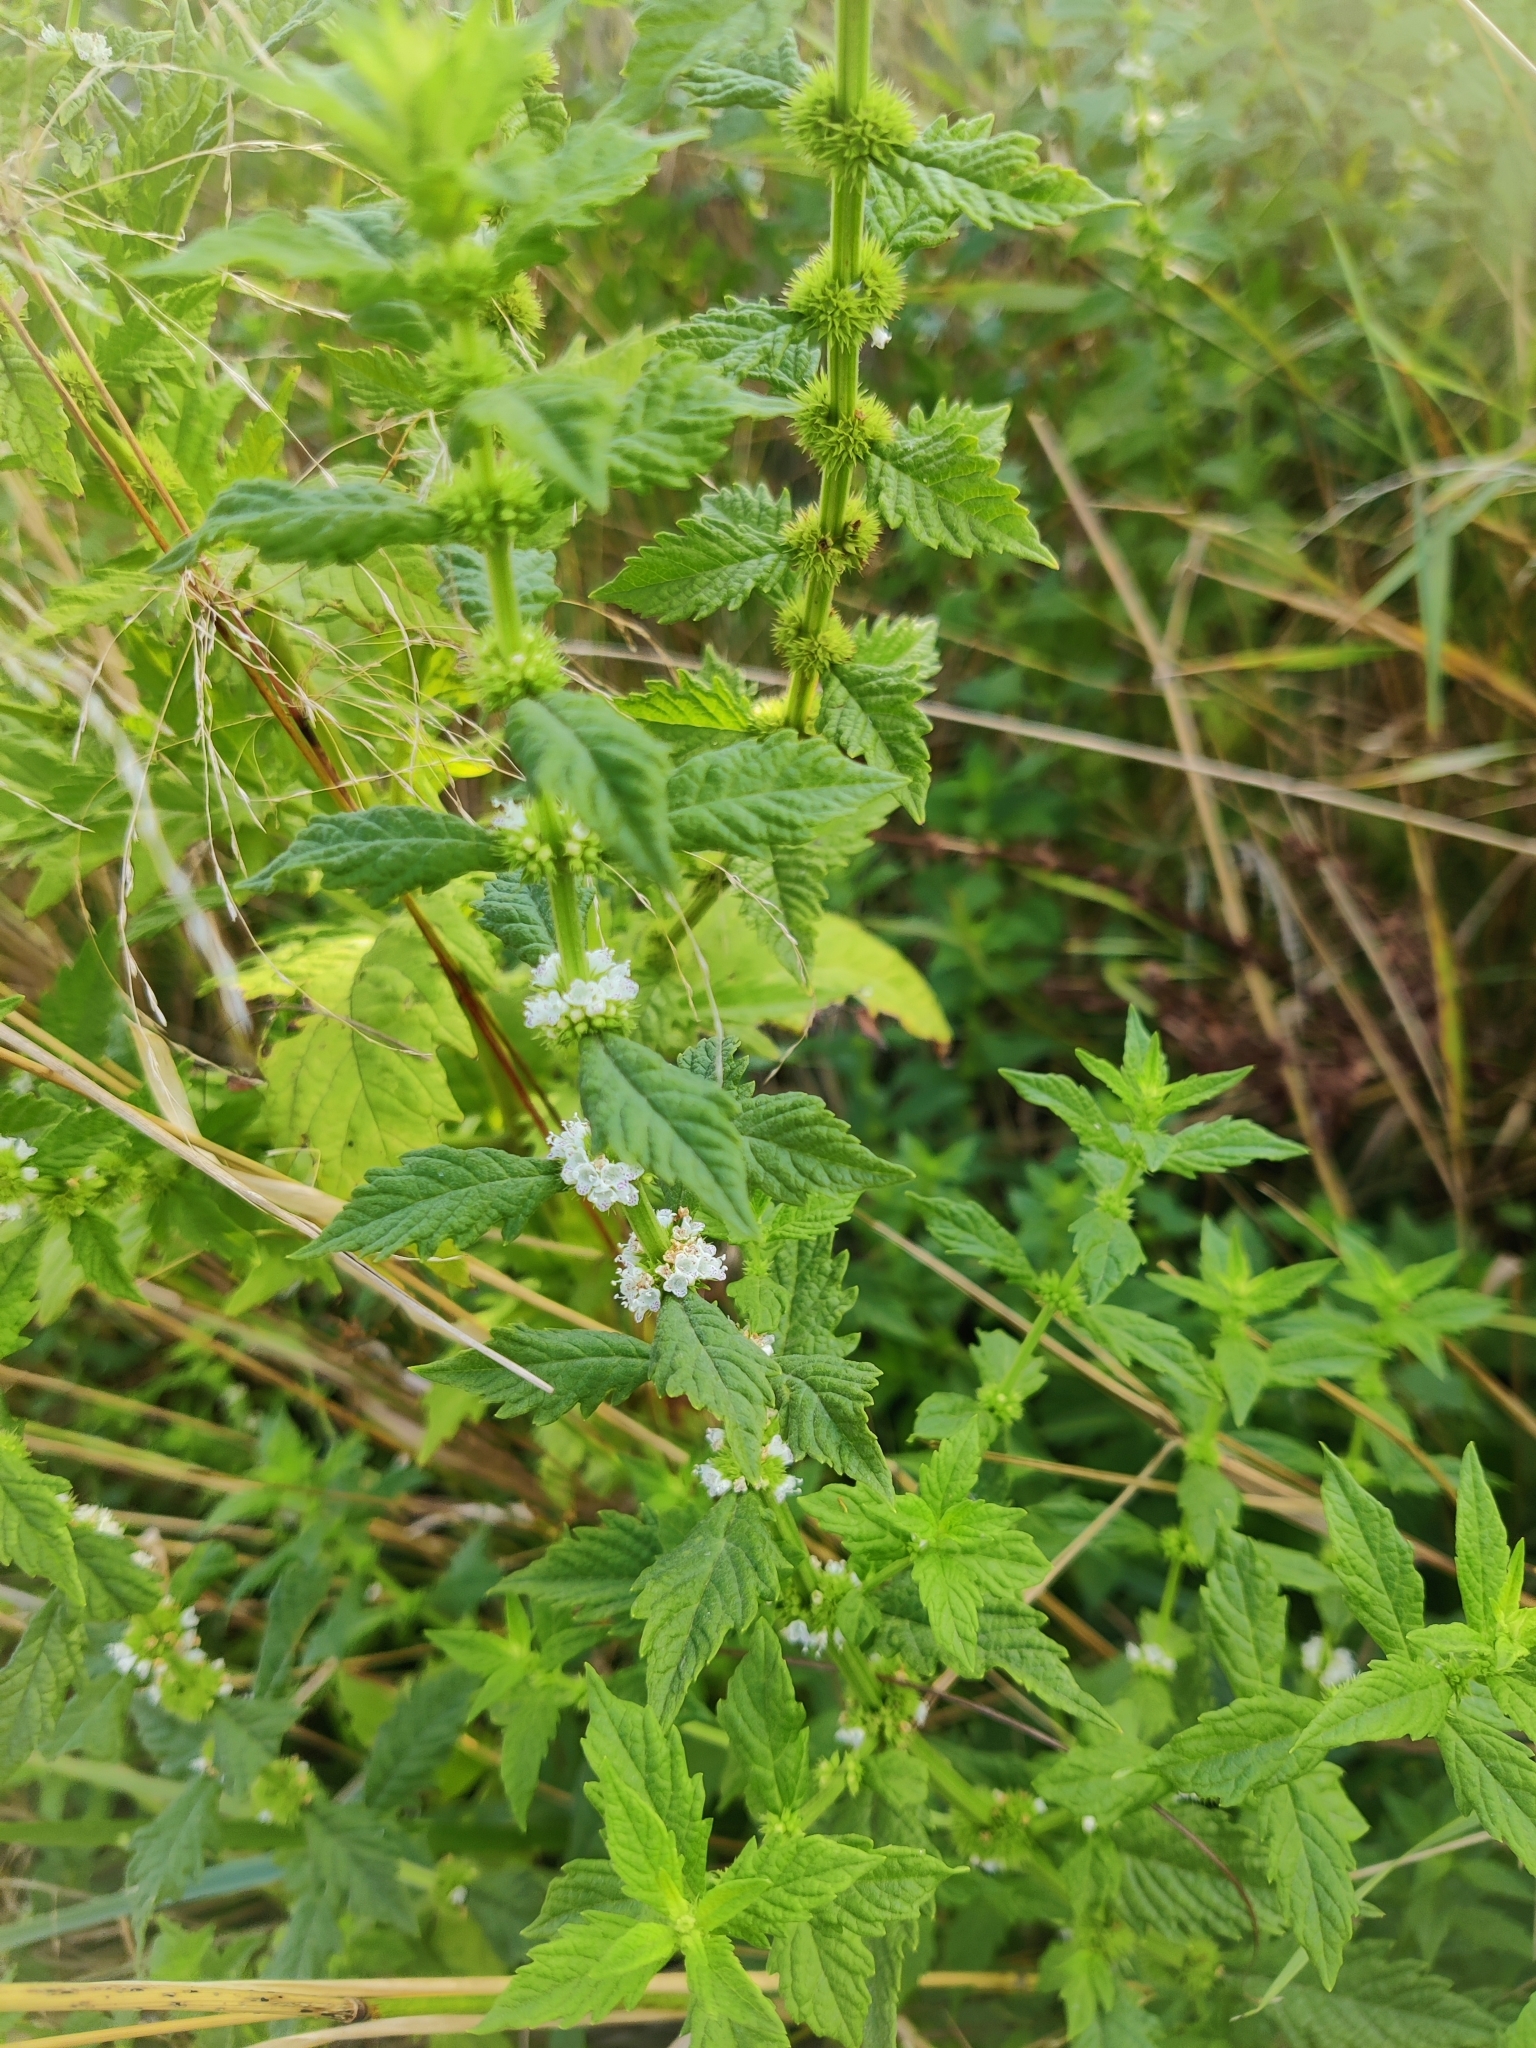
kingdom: Plantae
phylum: Tracheophyta
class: Magnoliopsida
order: Lamiales
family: Lamiaceae
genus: Lycopus
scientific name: Lycopus europaeus
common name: European bugleweed
